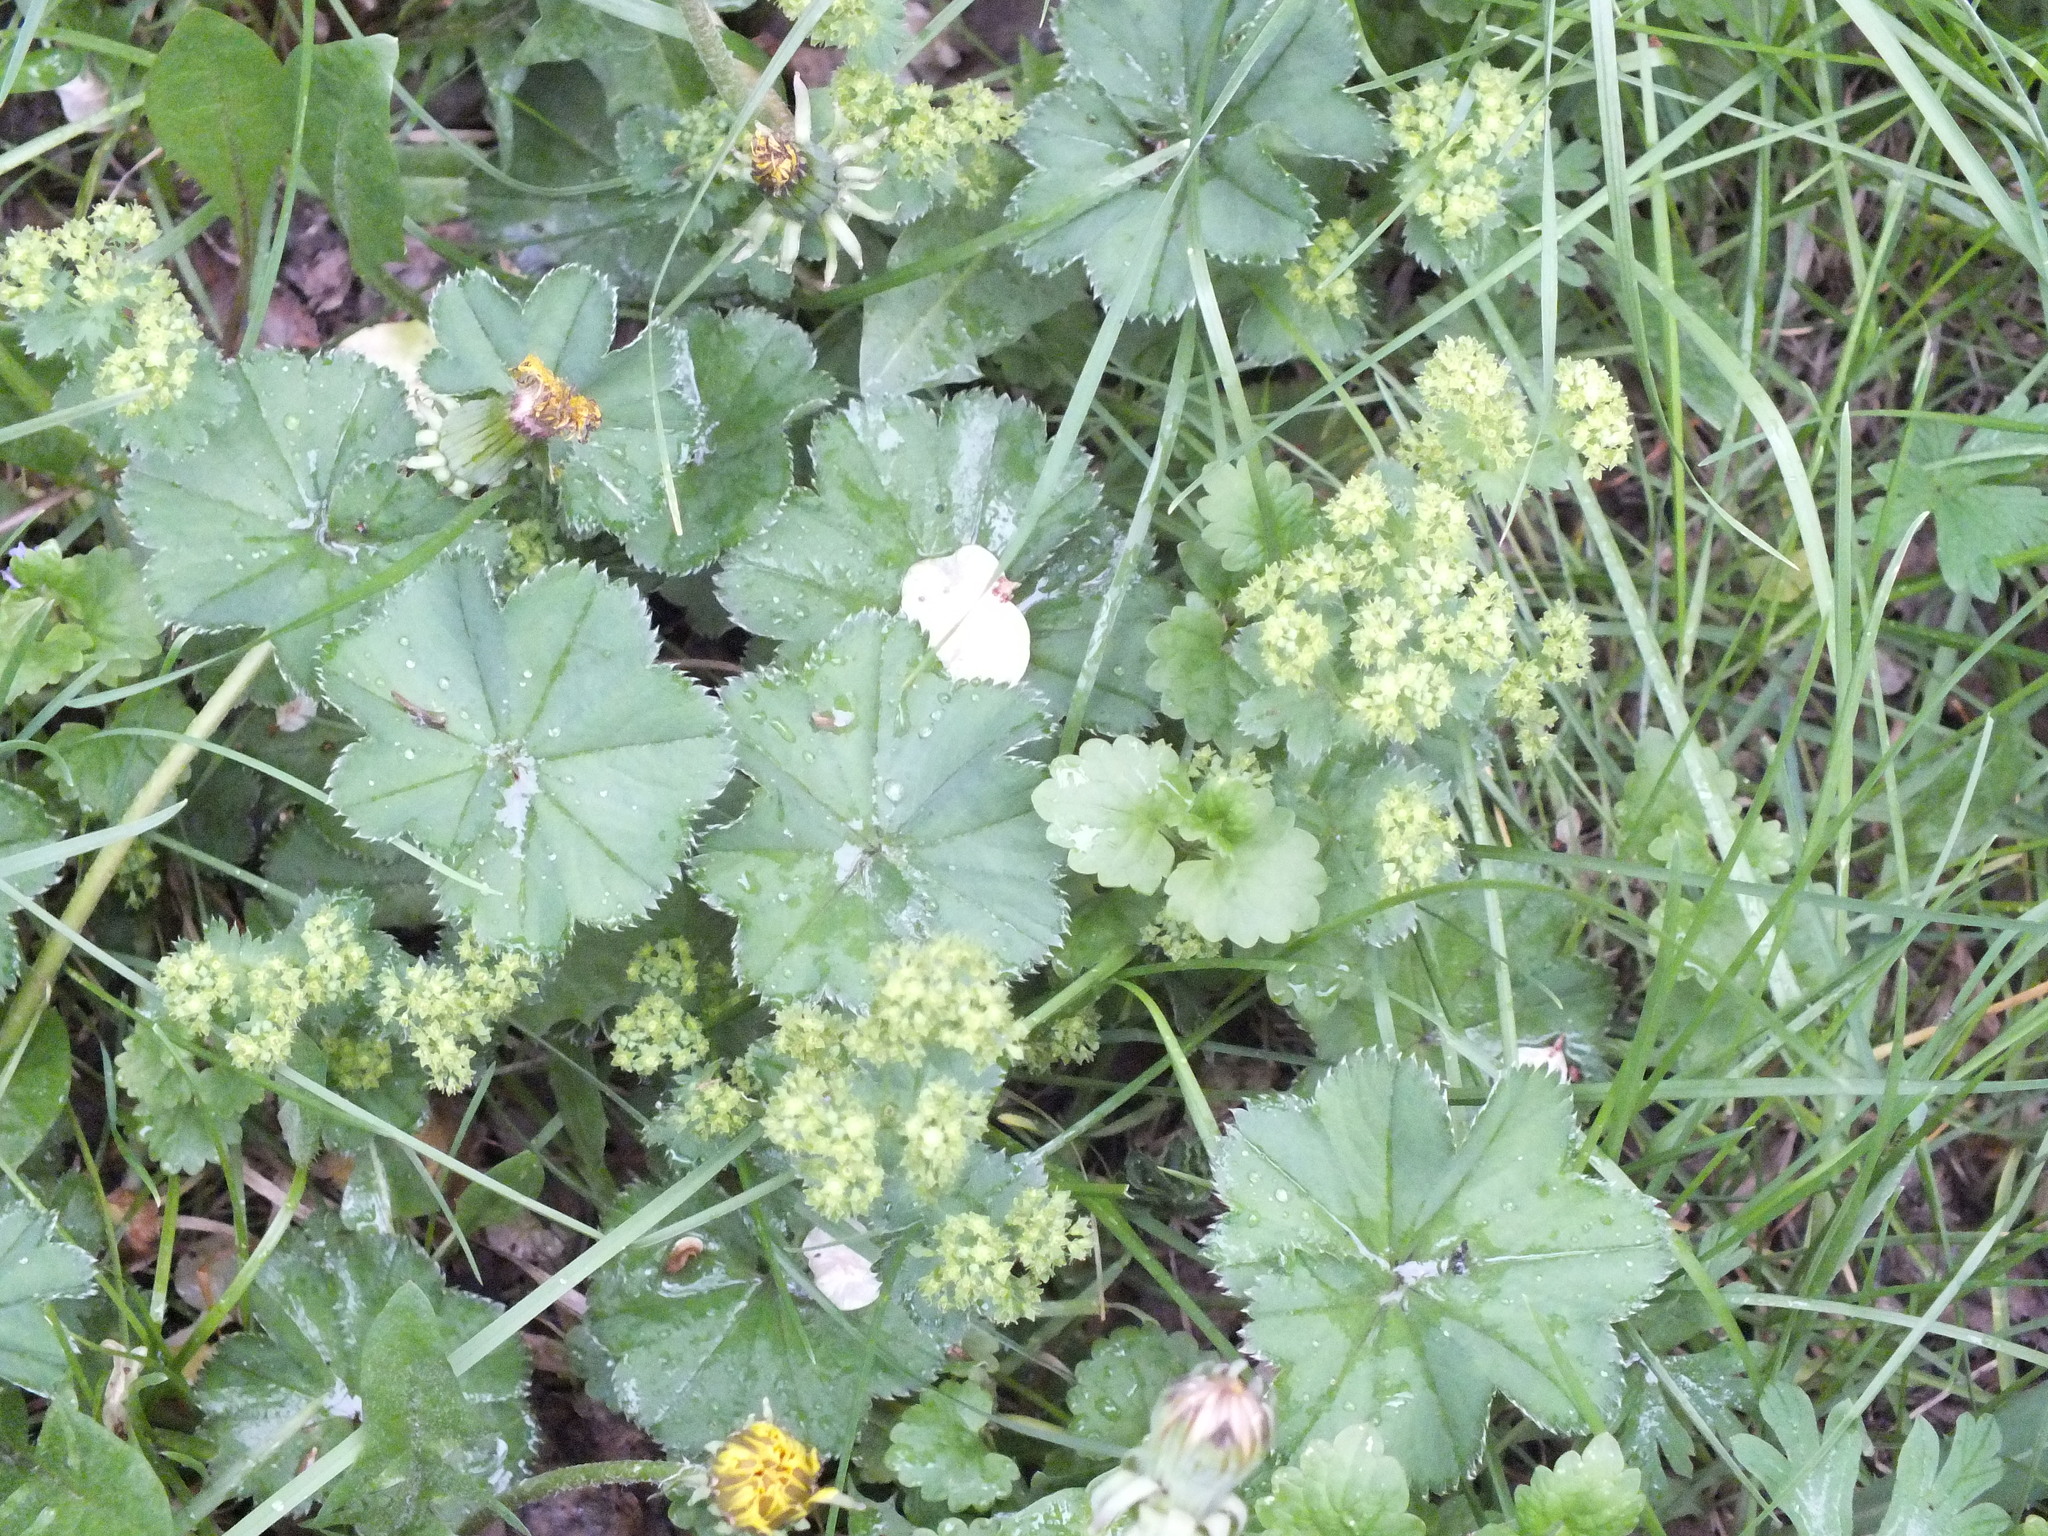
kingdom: Plantae
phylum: Tracheophyta
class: Magnoliopsida
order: Rosales
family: Rosaceae
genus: Alchemilla
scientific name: Alchemilla
